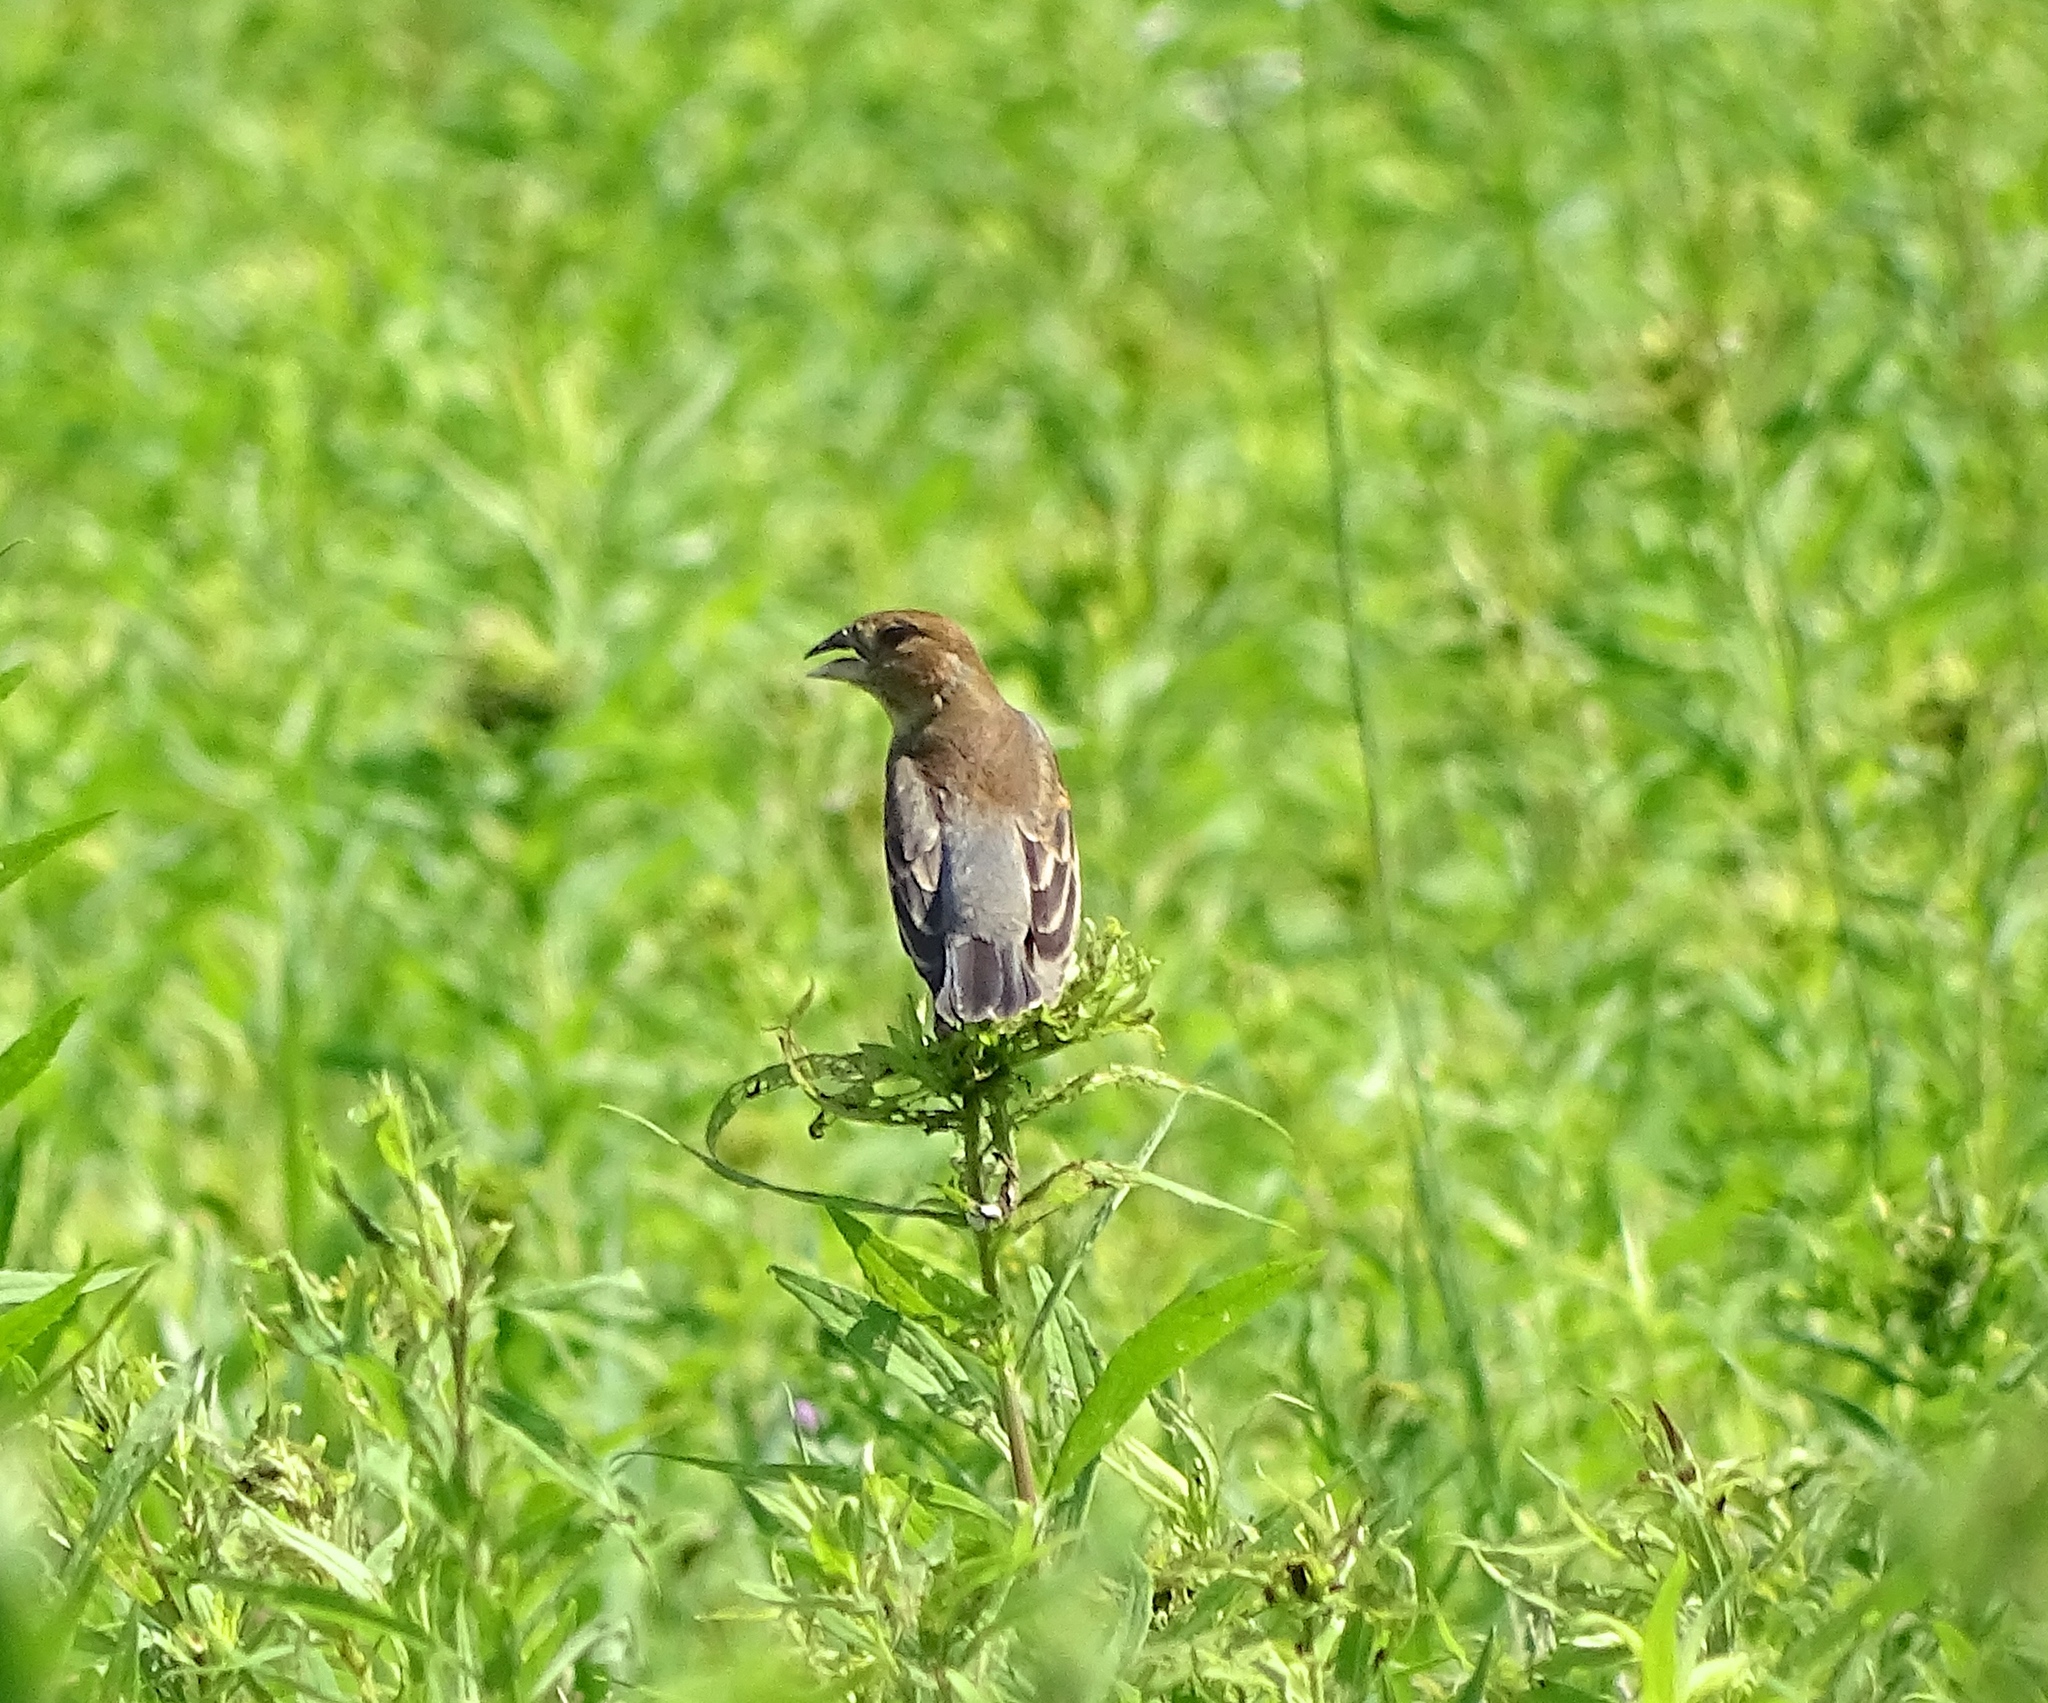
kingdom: Animalia
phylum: Chordata
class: Aves
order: Passeriformes
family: Cardinalidae
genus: Passerina
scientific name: Passerina caerulea
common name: Blue grosbeak
